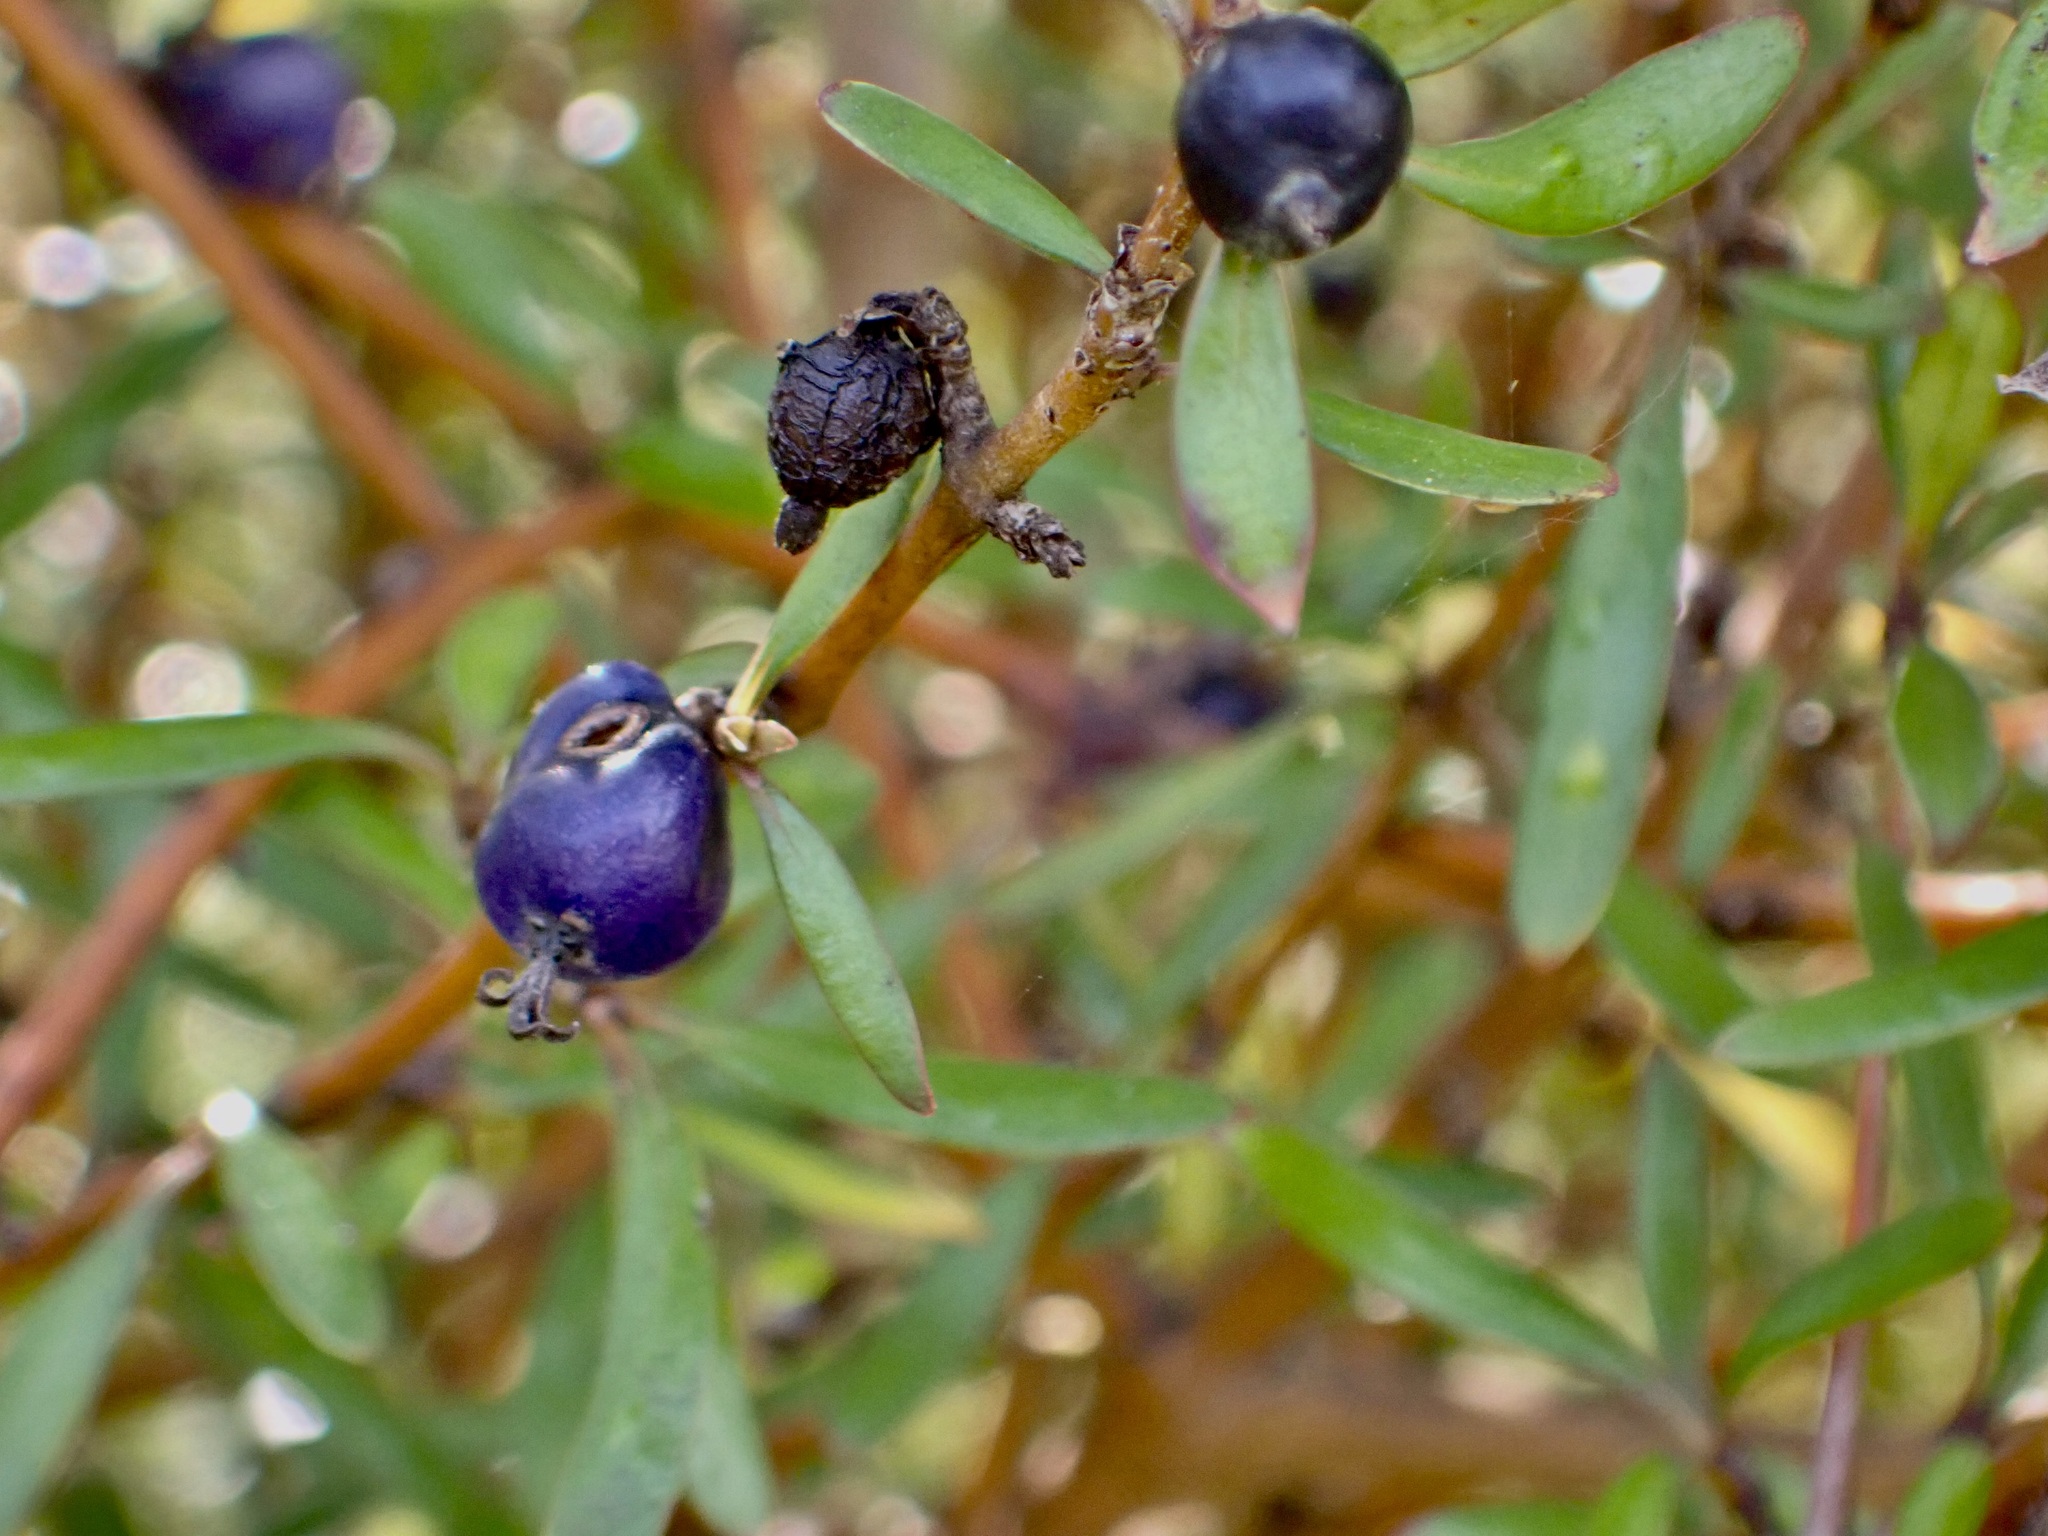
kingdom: Plantae
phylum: Tracheophyta
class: Magnoliopsida
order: Gentianales
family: Rubiaceae
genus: Coprosma
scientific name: Coprosma propinqua
